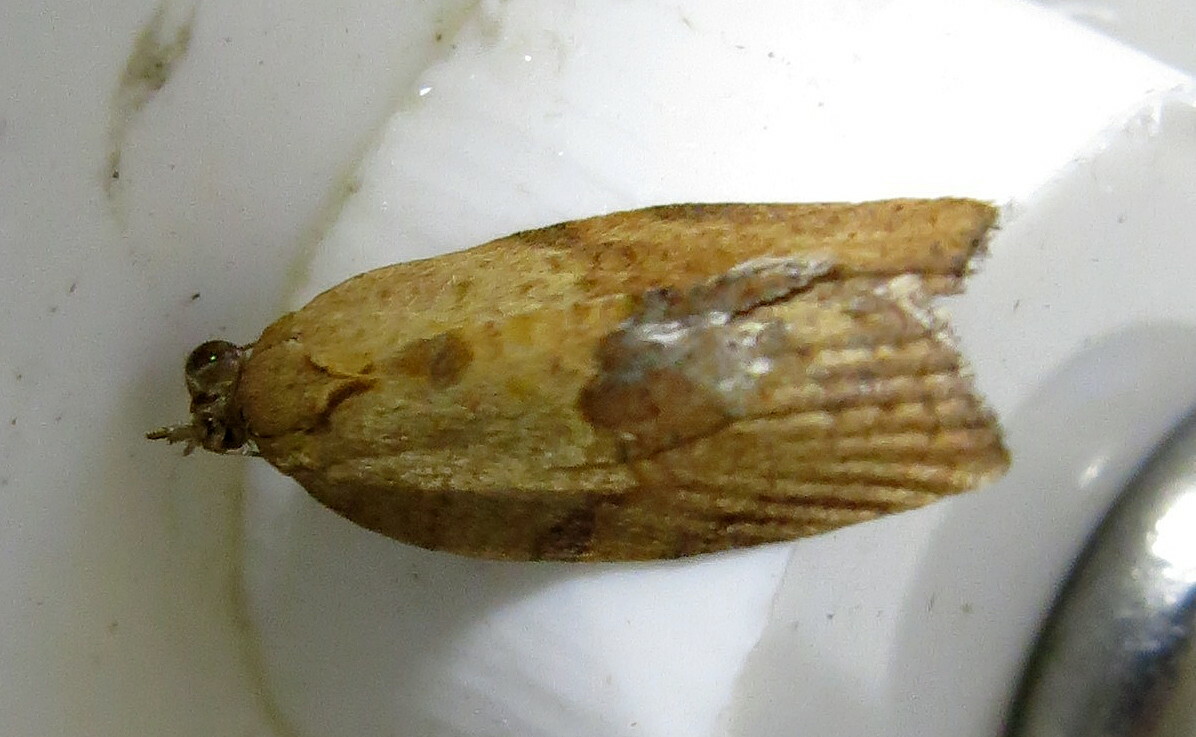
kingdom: Animalia
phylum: Arthropoda
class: Insecta
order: Lepidoptera
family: Tortricidae
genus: Epiphyas
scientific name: Epiphyas postvittana
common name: Light brown apple moth
